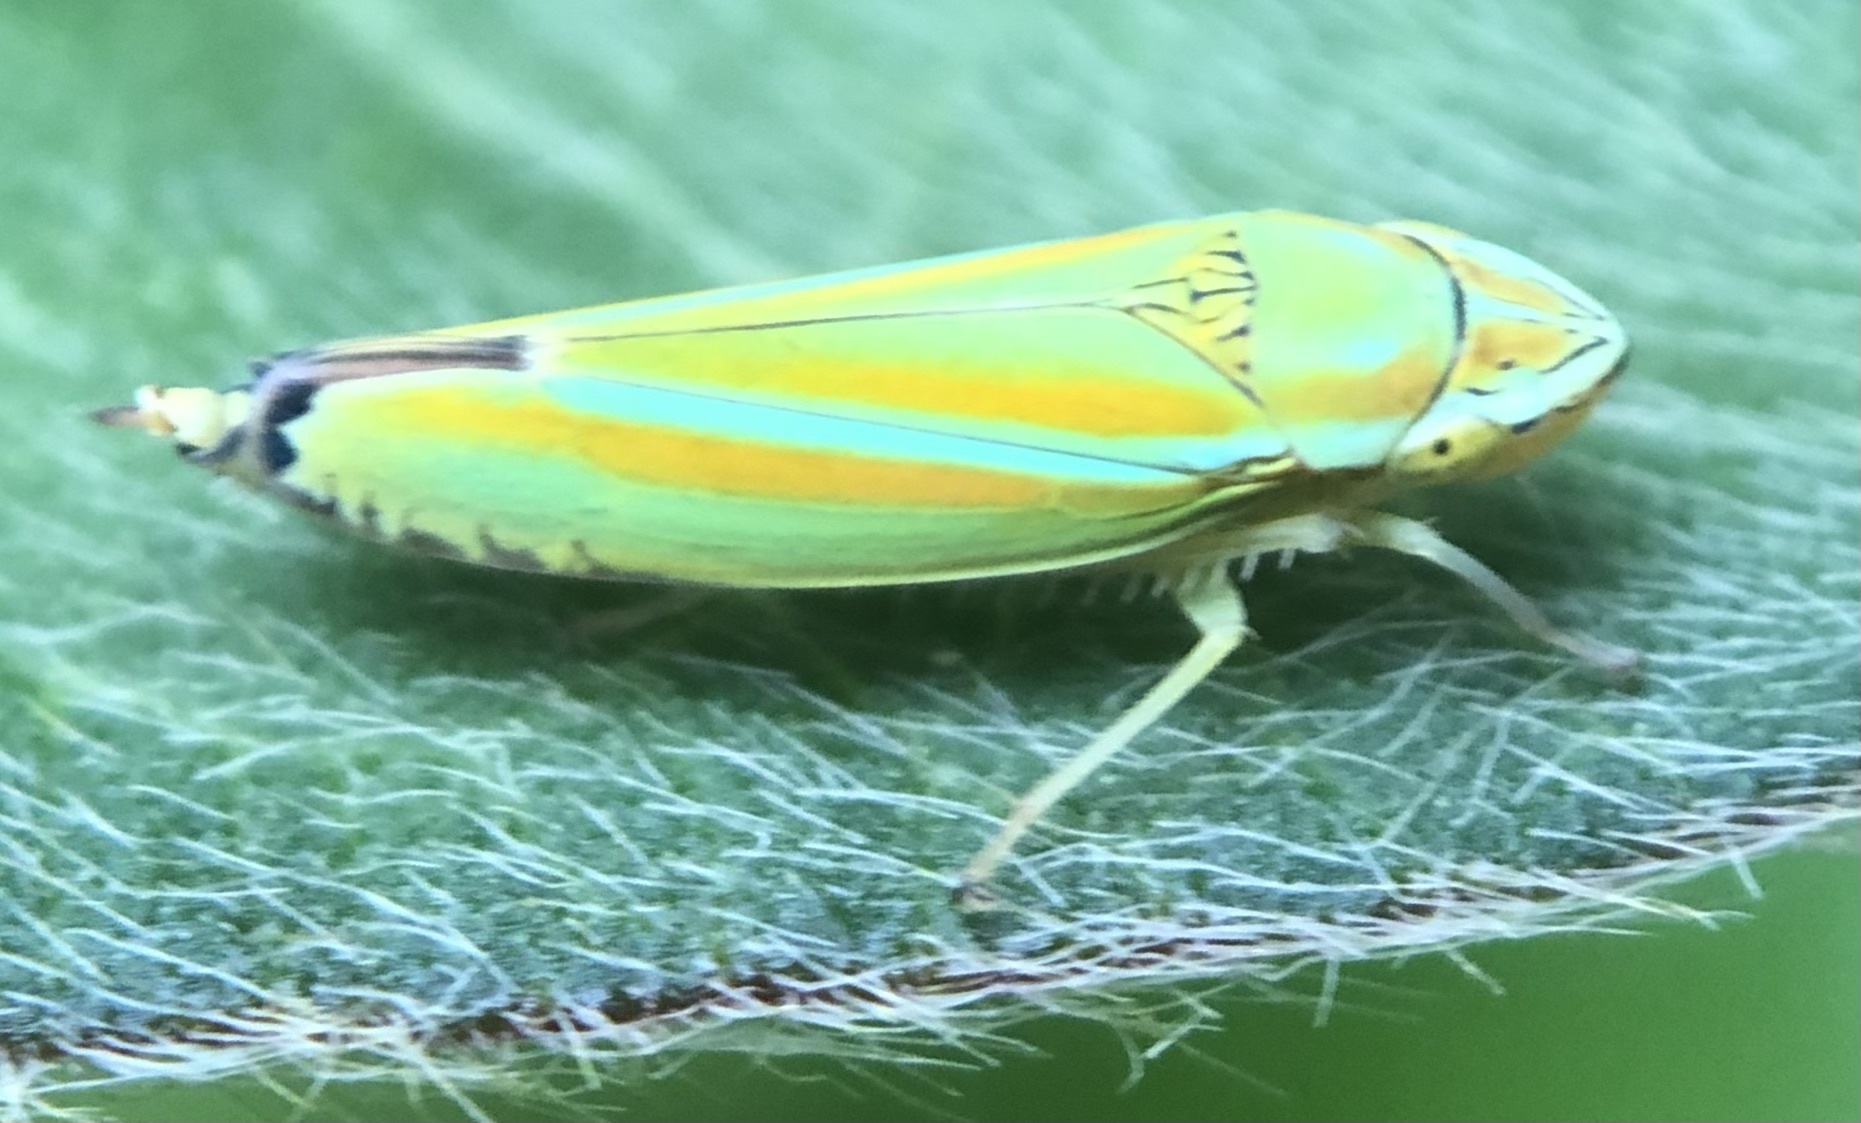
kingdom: Animalia
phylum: Arthropoda
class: Insecta
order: Hemiptera
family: Cicadellidae
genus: Graphocephala
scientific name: Graphocephala versuta
